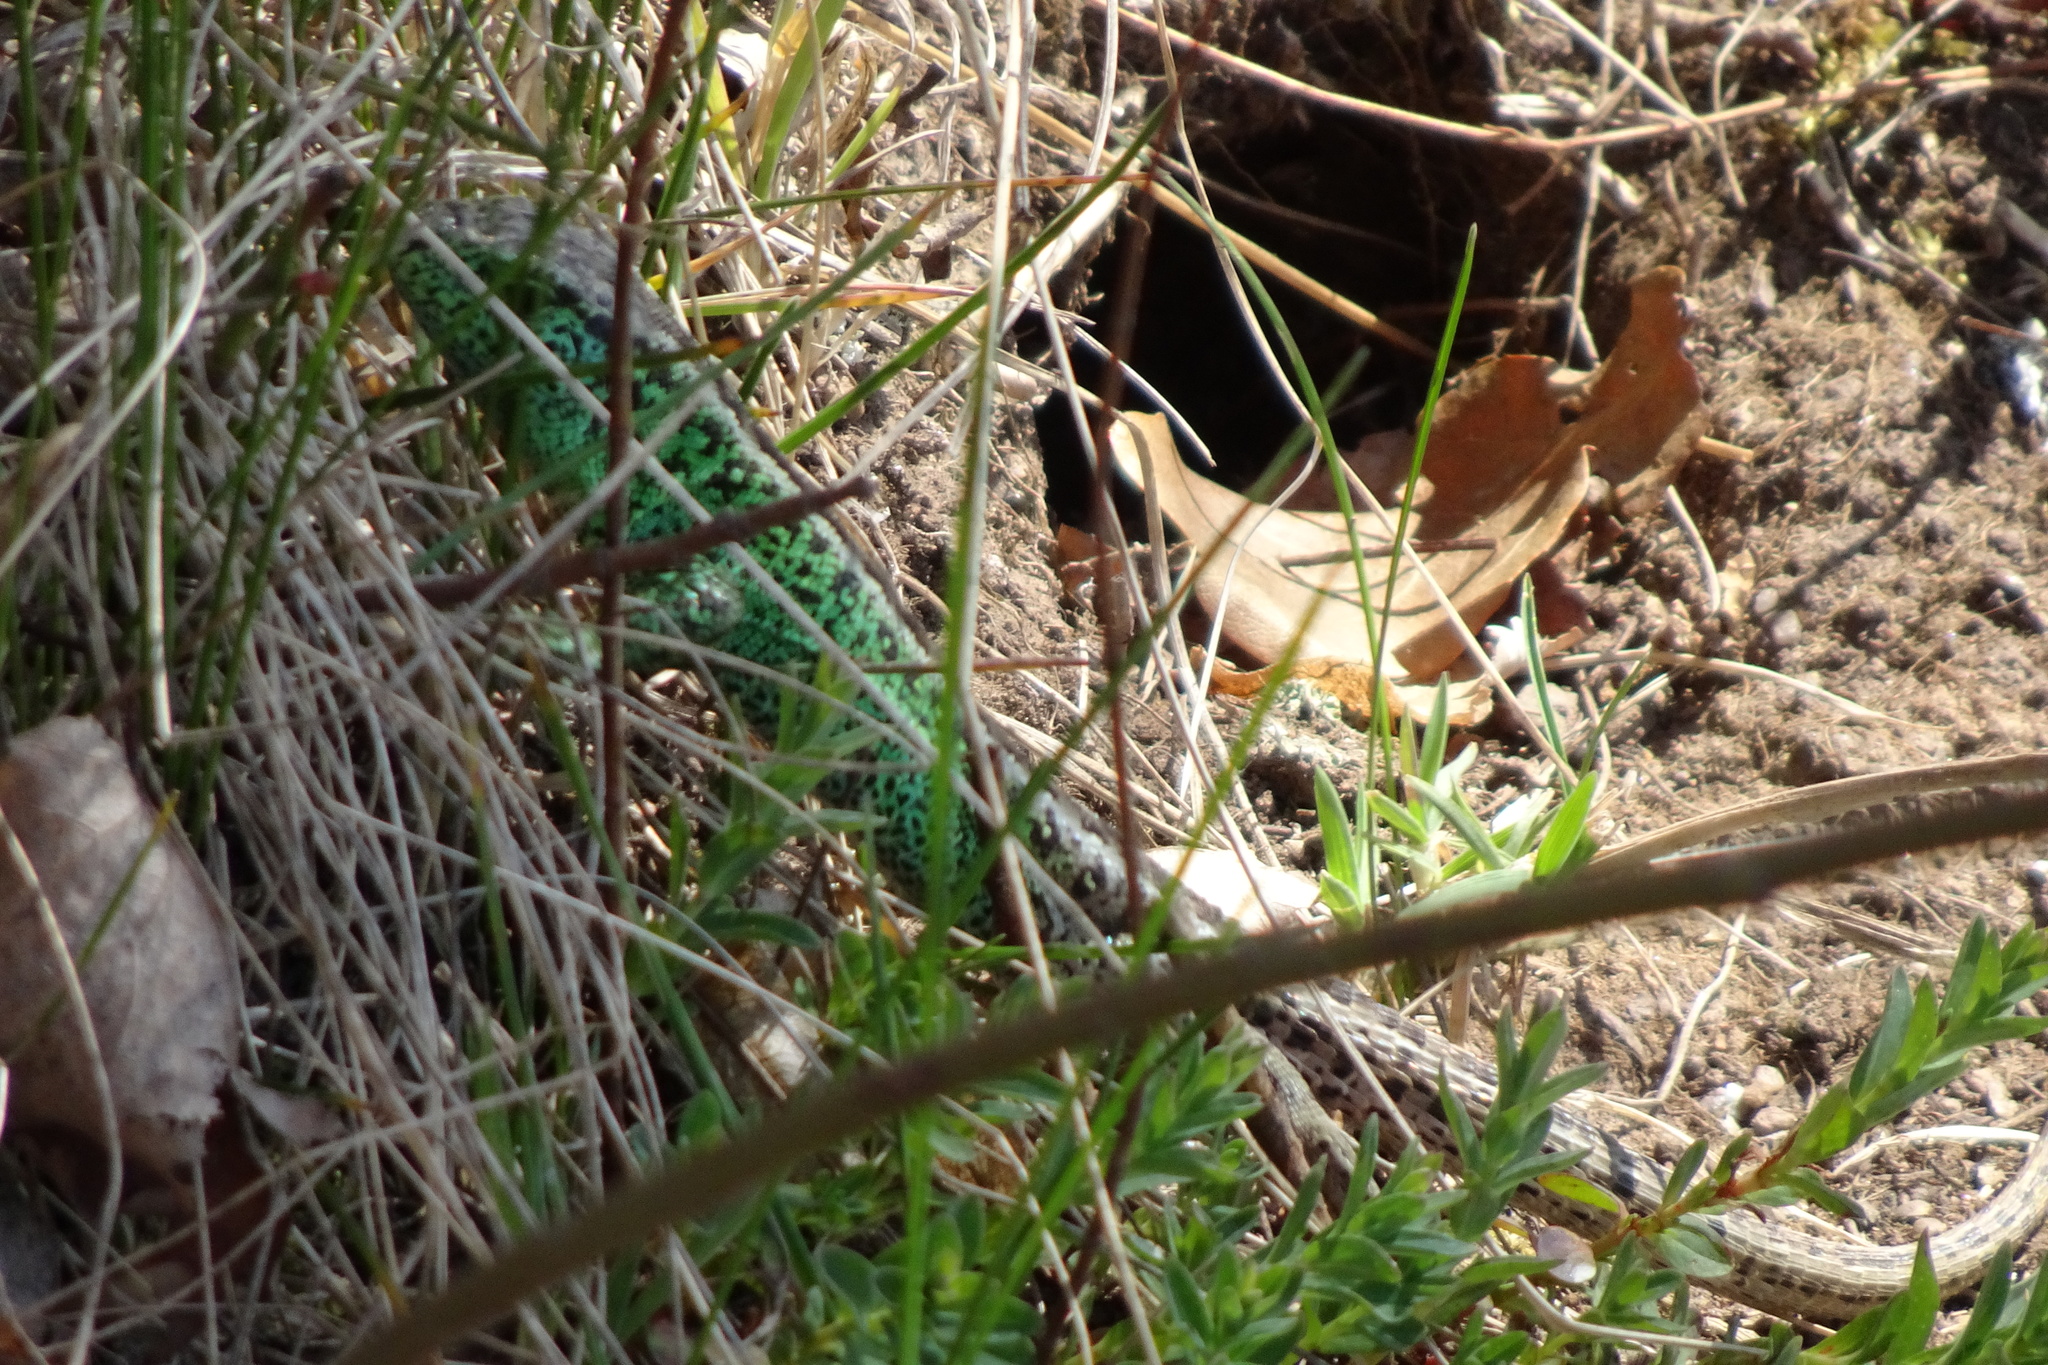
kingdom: Animalia
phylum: Chordata
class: Squamata
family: Lacertidae
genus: Lacerta
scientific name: Lacerta agilis
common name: Sand lizard
